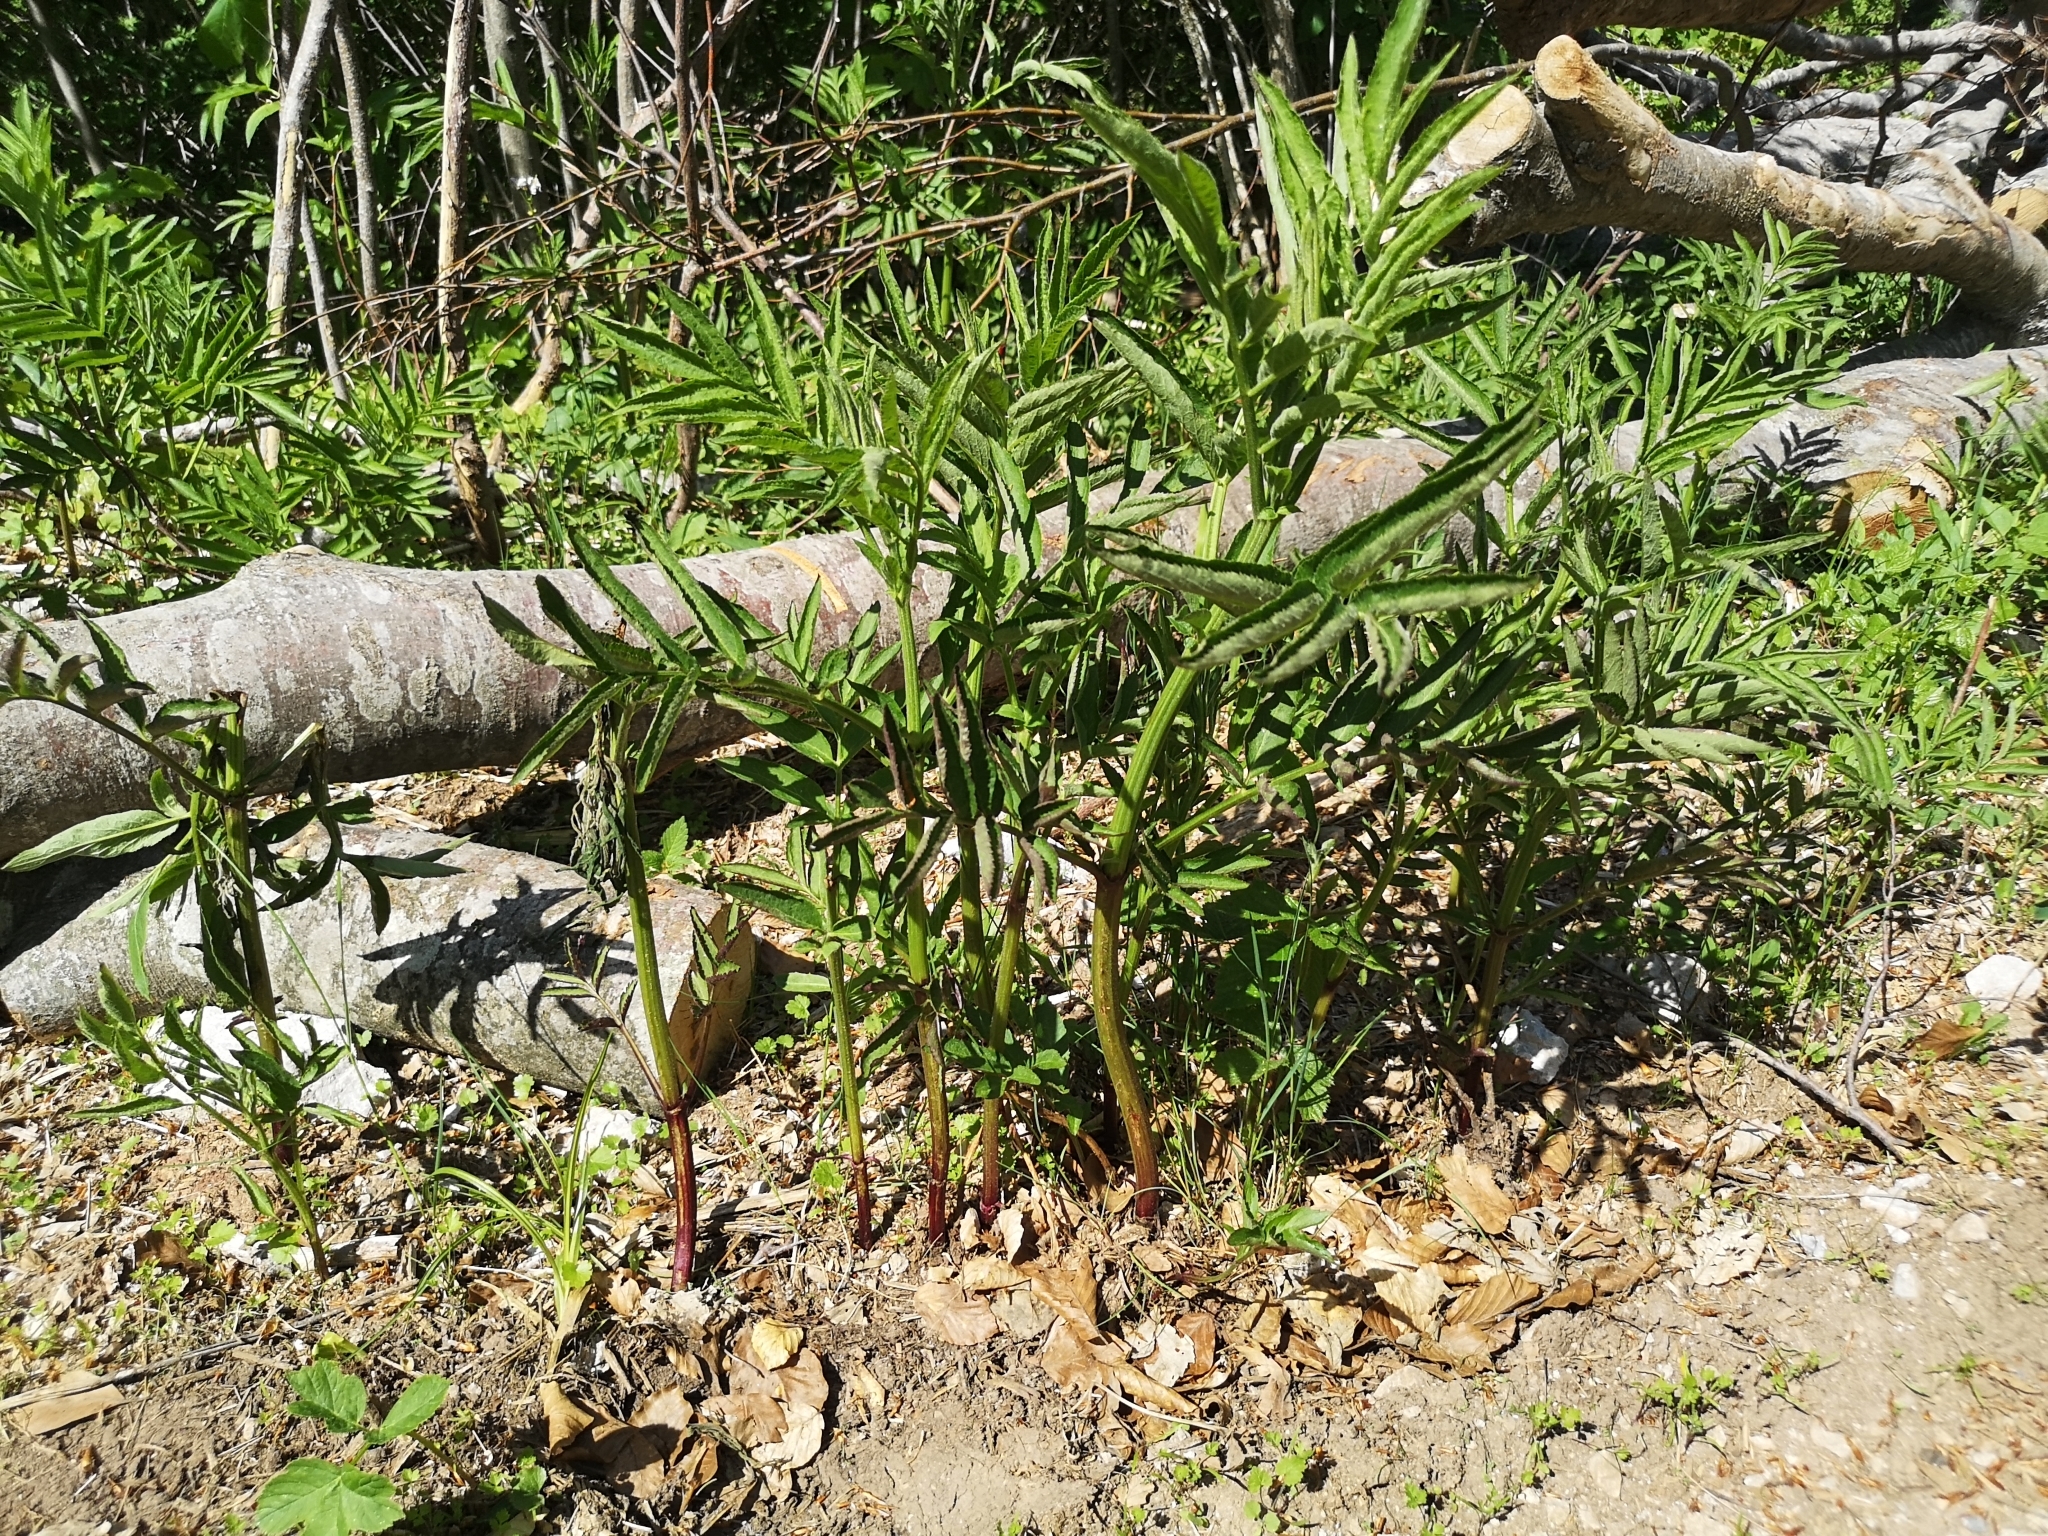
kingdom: Plantae
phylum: Tracheophyta
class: Magnoliopsida
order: Dipsacales
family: Viburnaceae
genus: Sambucus
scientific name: Sambucus ebulus
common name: Dwarf elder
